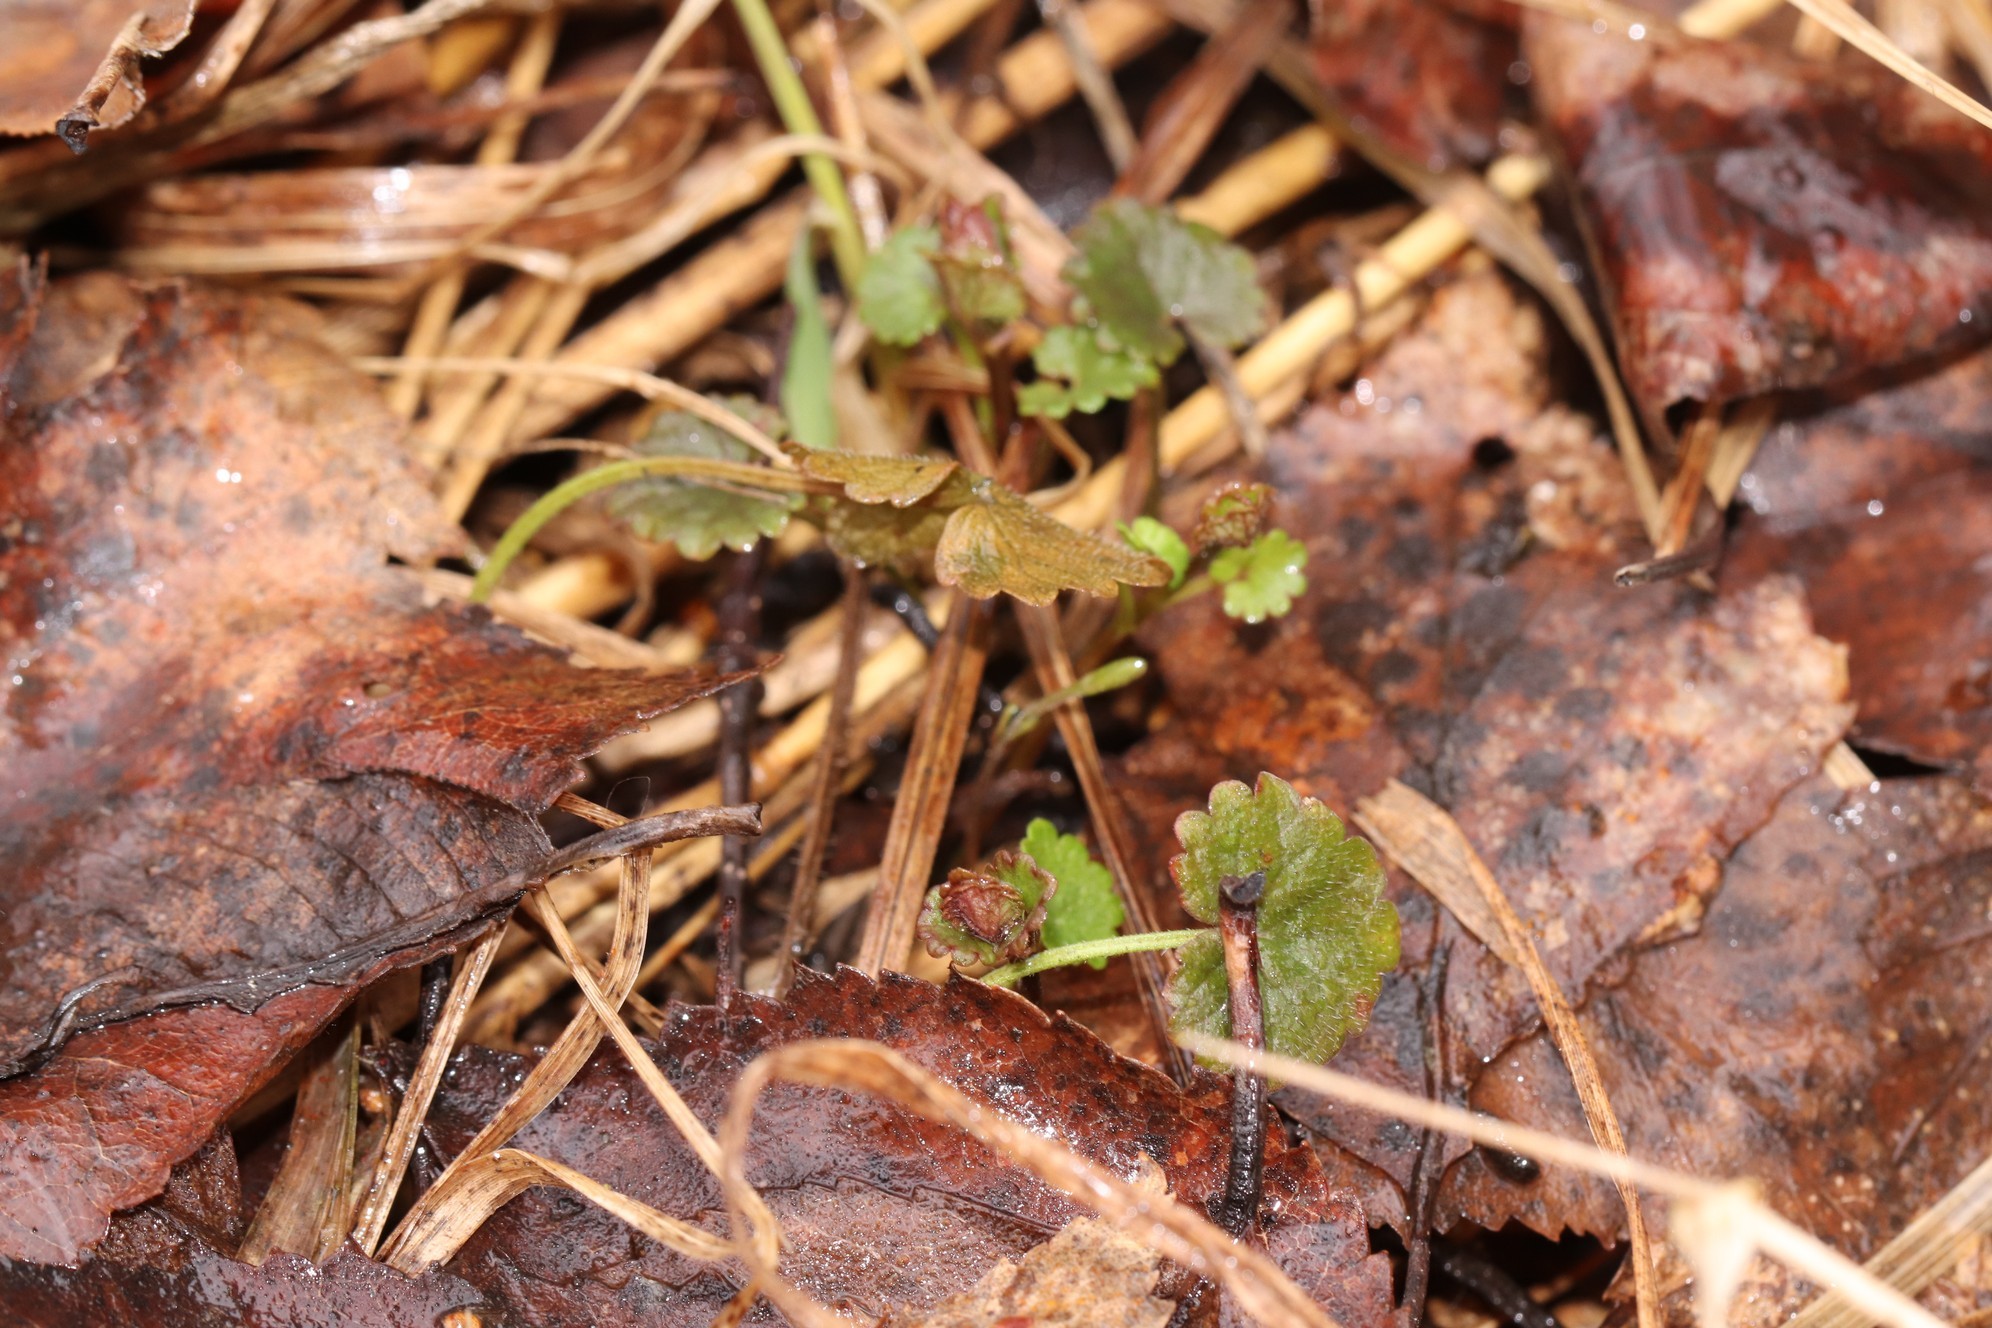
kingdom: Plantae
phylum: Tracheophyta
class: Magnoliopsida
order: Lamiales
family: Lamiaceae
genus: Glechoma
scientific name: Glechoma hederacea
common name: Ground ivy
